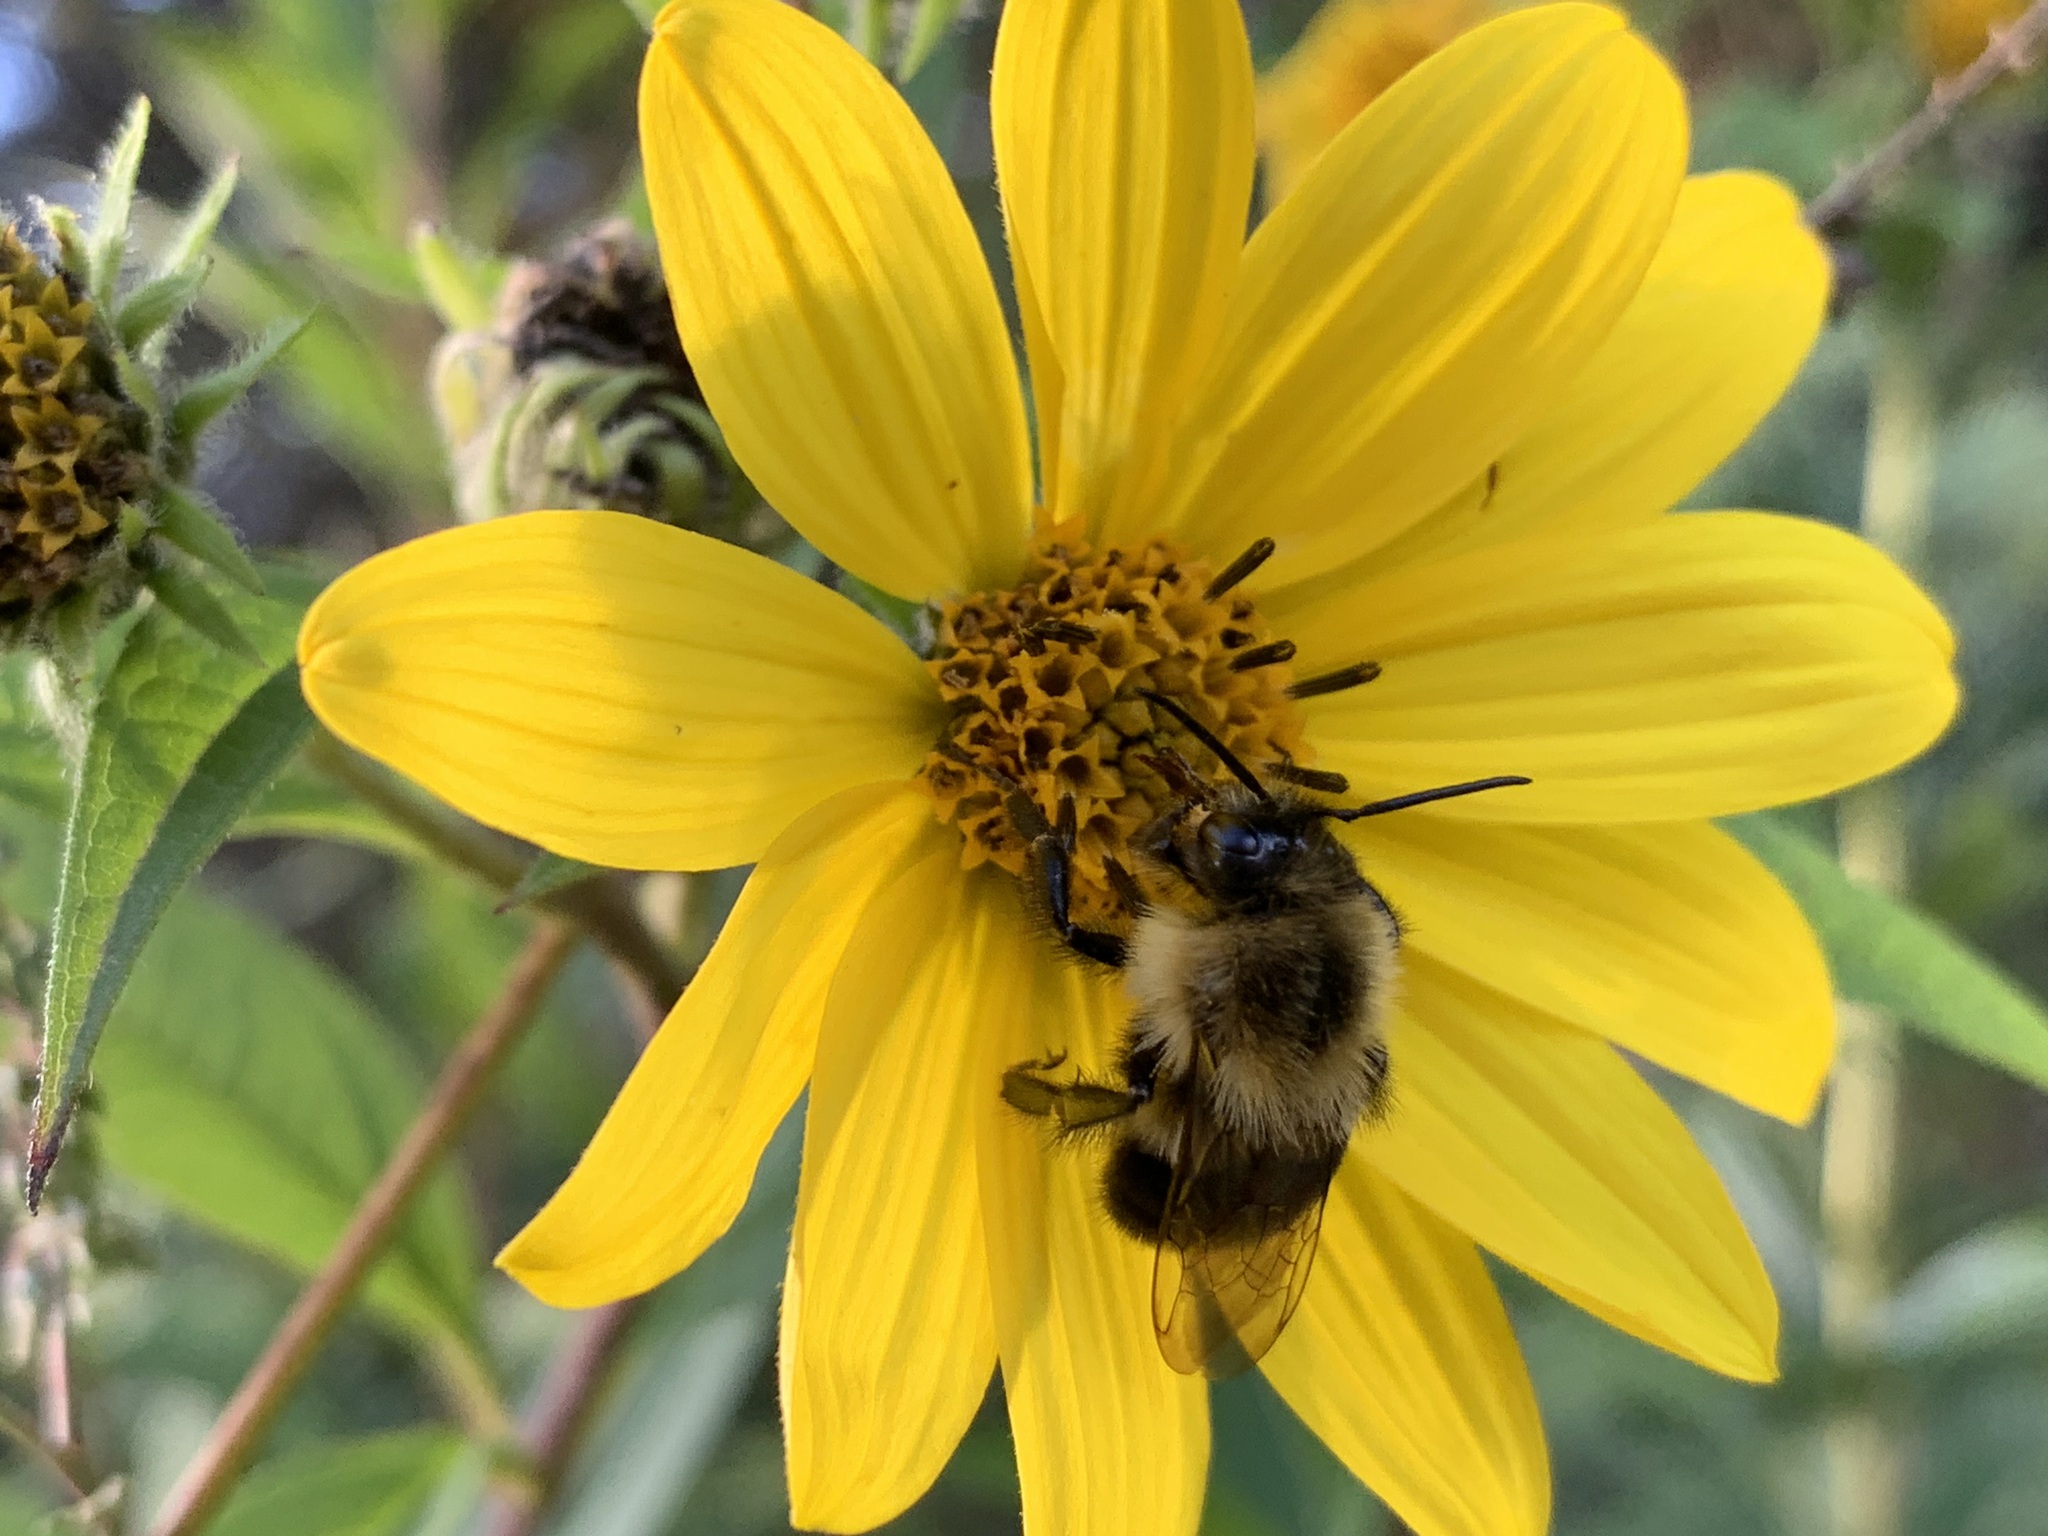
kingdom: Animalia
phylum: Arthropoda
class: Insecta
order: Hymenoptera
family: Apidae
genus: Bombus
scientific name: Bombus impatiens
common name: Common eastern bumble bee
